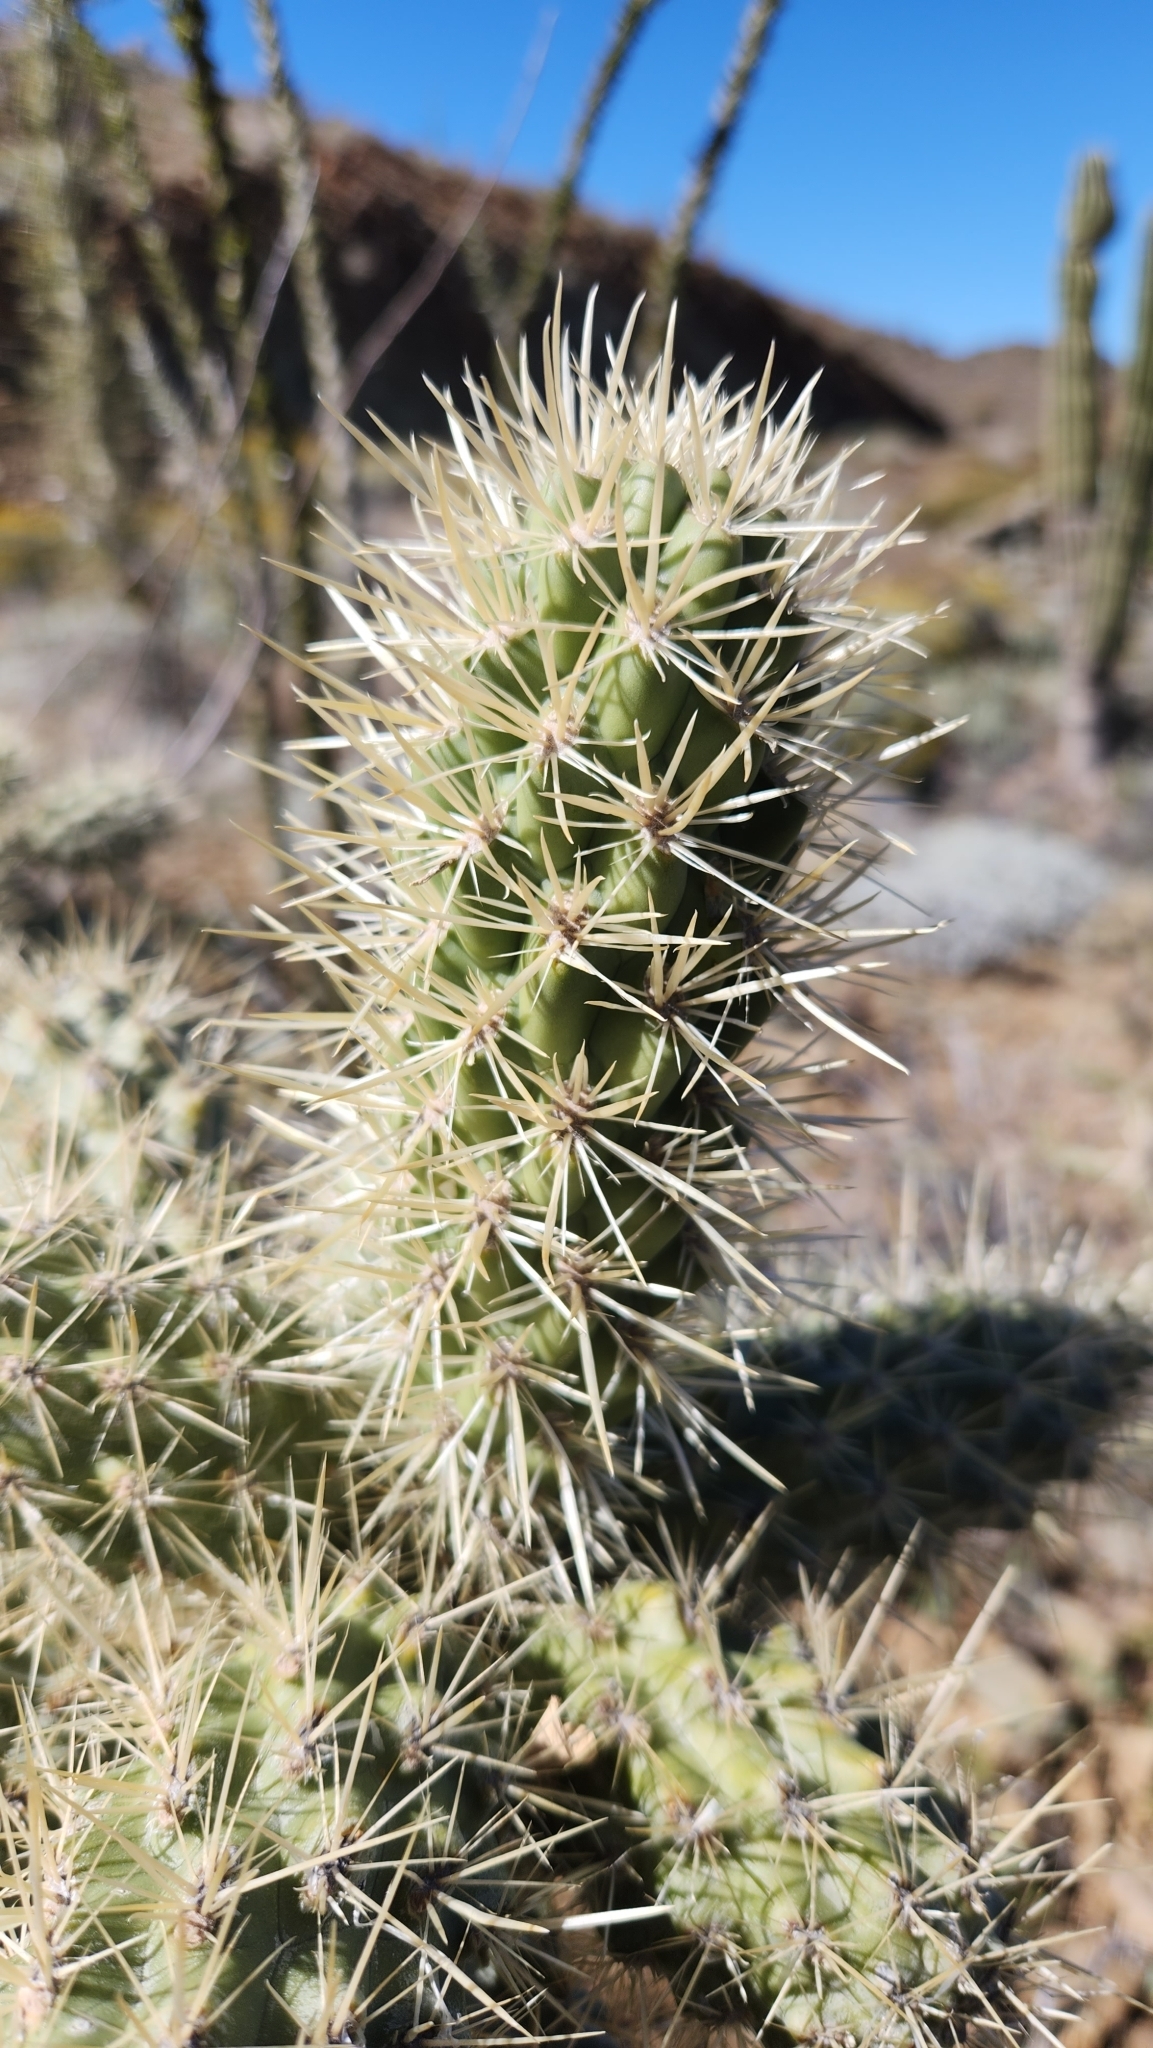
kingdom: Plantae
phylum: Tracheophyta
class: Magnoliopsida
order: Caryophyllales
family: Cactaceae
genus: Cylindropuntia
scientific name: Cylindropuntia alcahes
